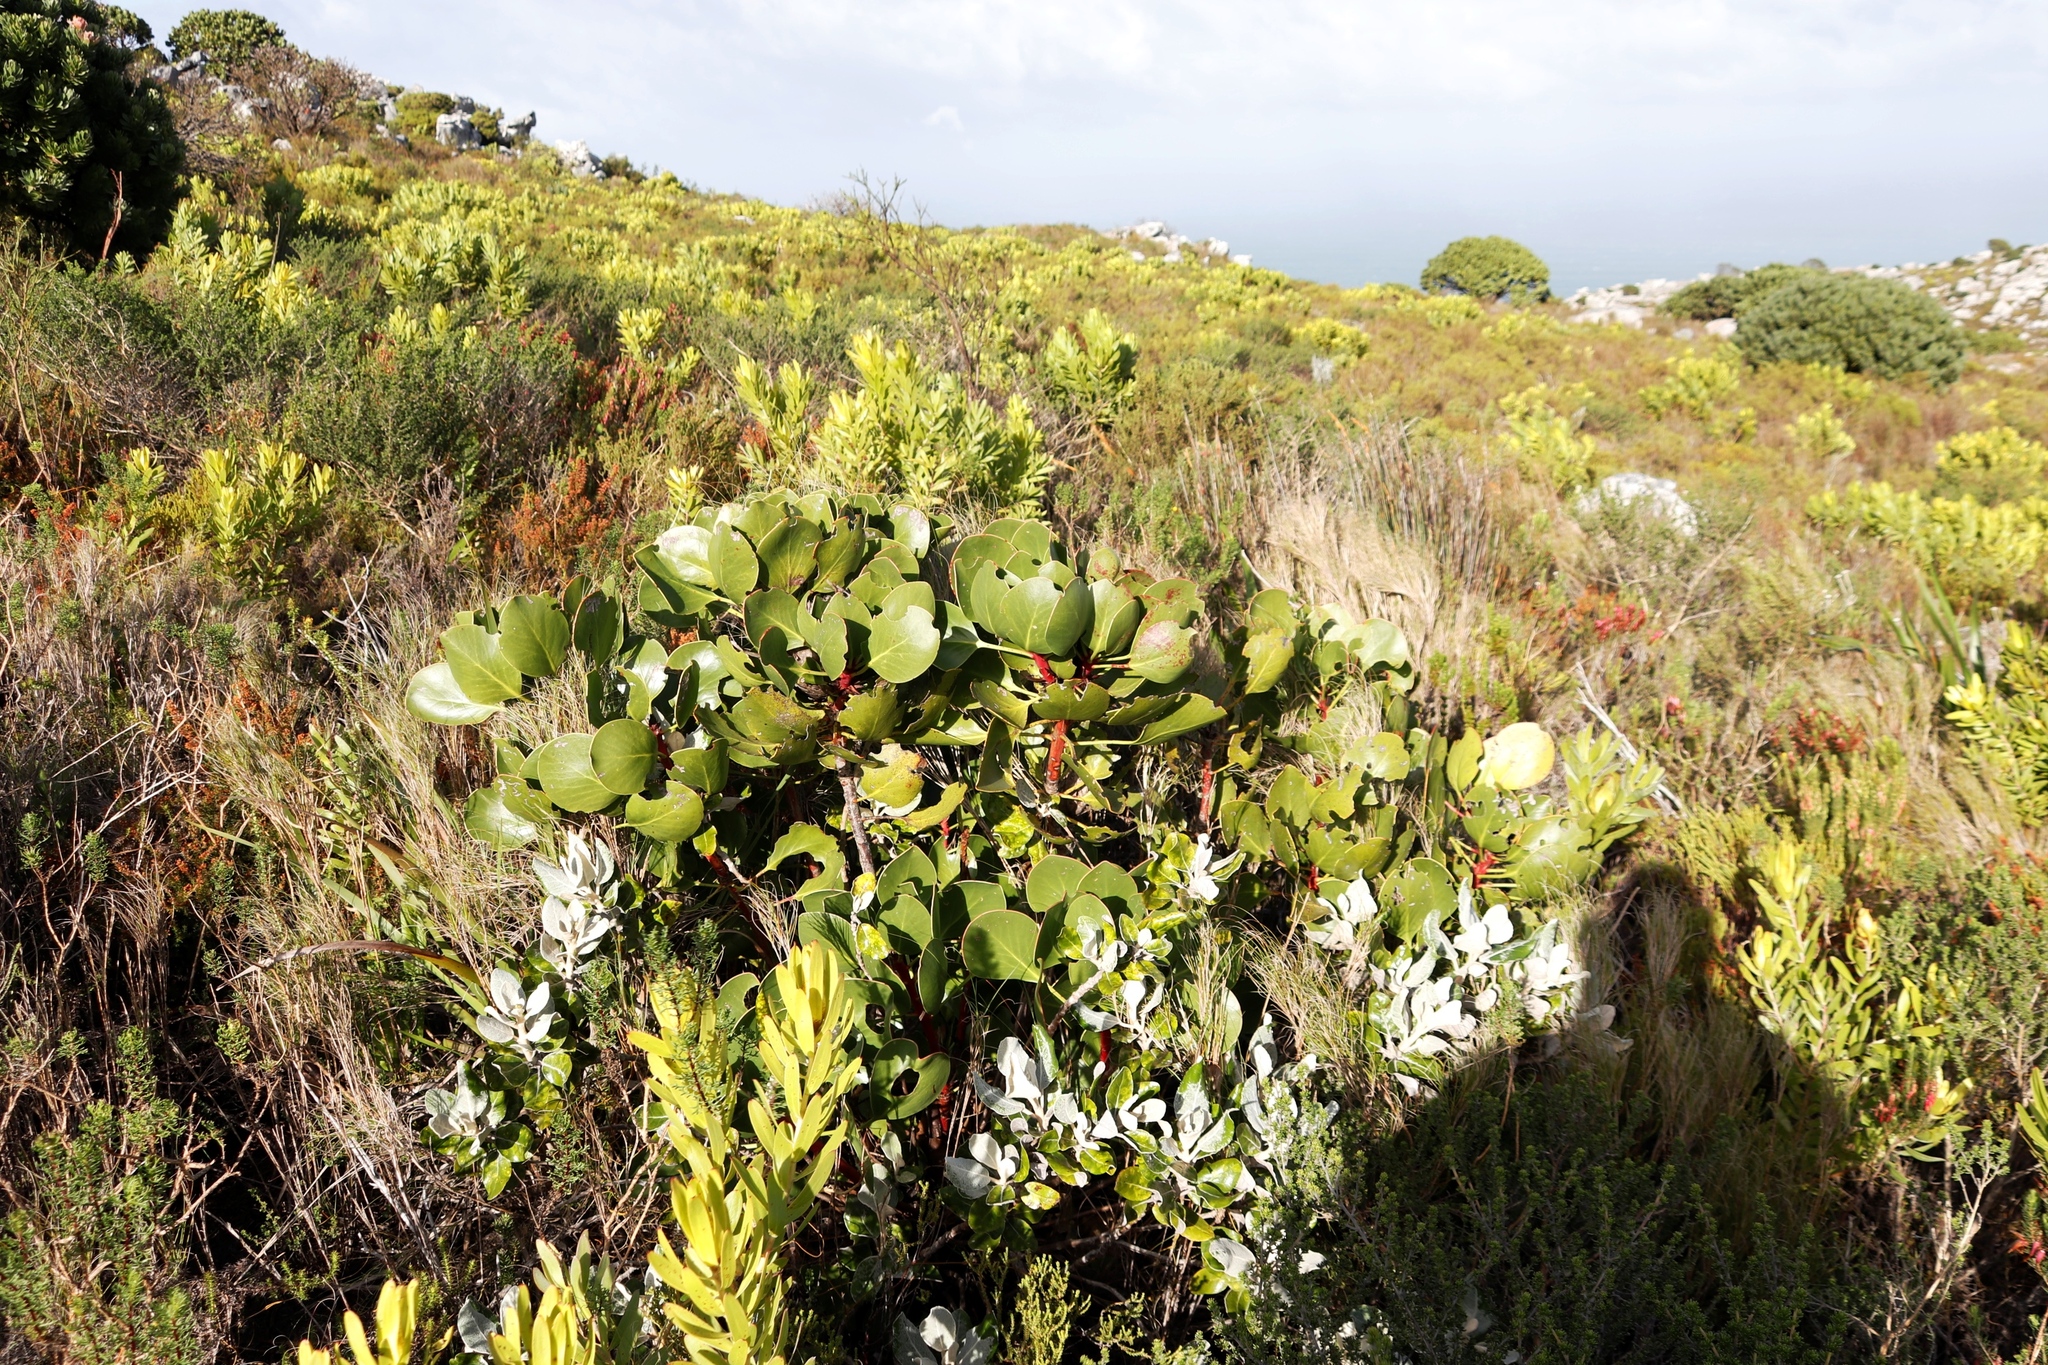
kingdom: Plantae
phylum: Tracheophyta
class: Magnoliopsida
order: Proteales
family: Proteaceae
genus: Protea
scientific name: Protea cynaroides
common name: King protea
